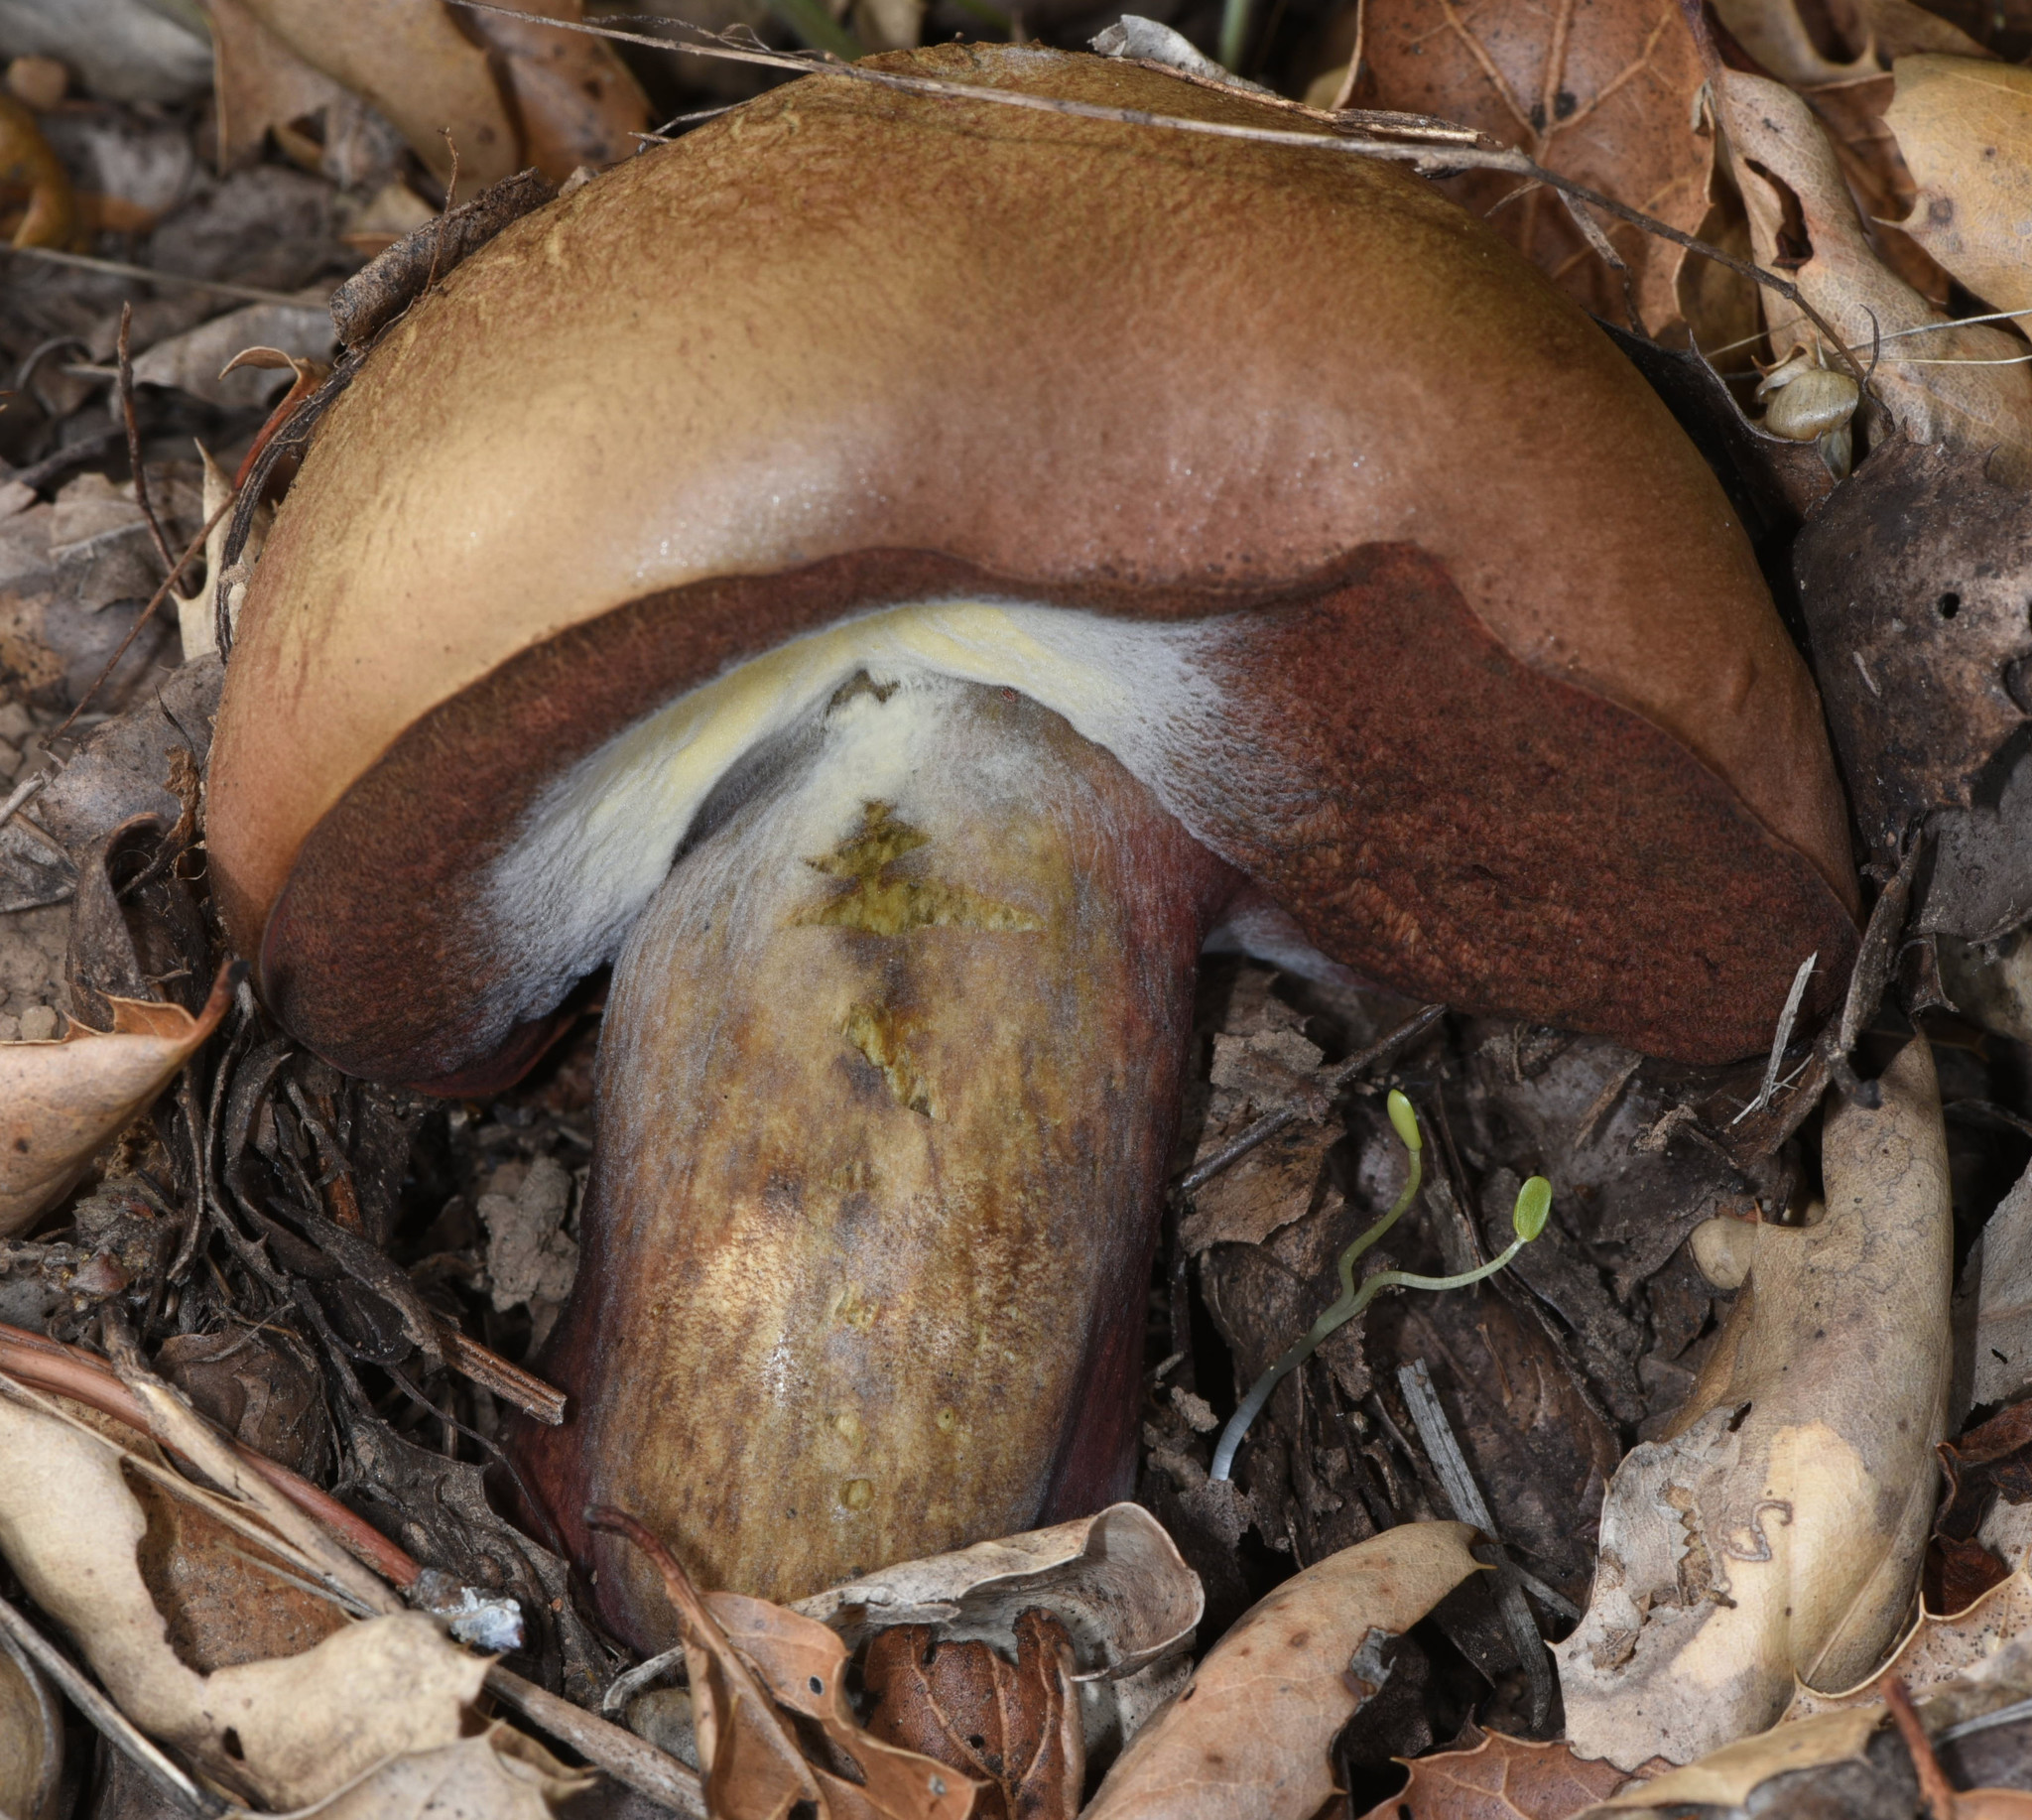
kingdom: Fungi
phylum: Basidiomycota
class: Agaricomycetes
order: Boletales
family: Boletaceae
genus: Suillellus
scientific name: Suillellus amygdalinus
